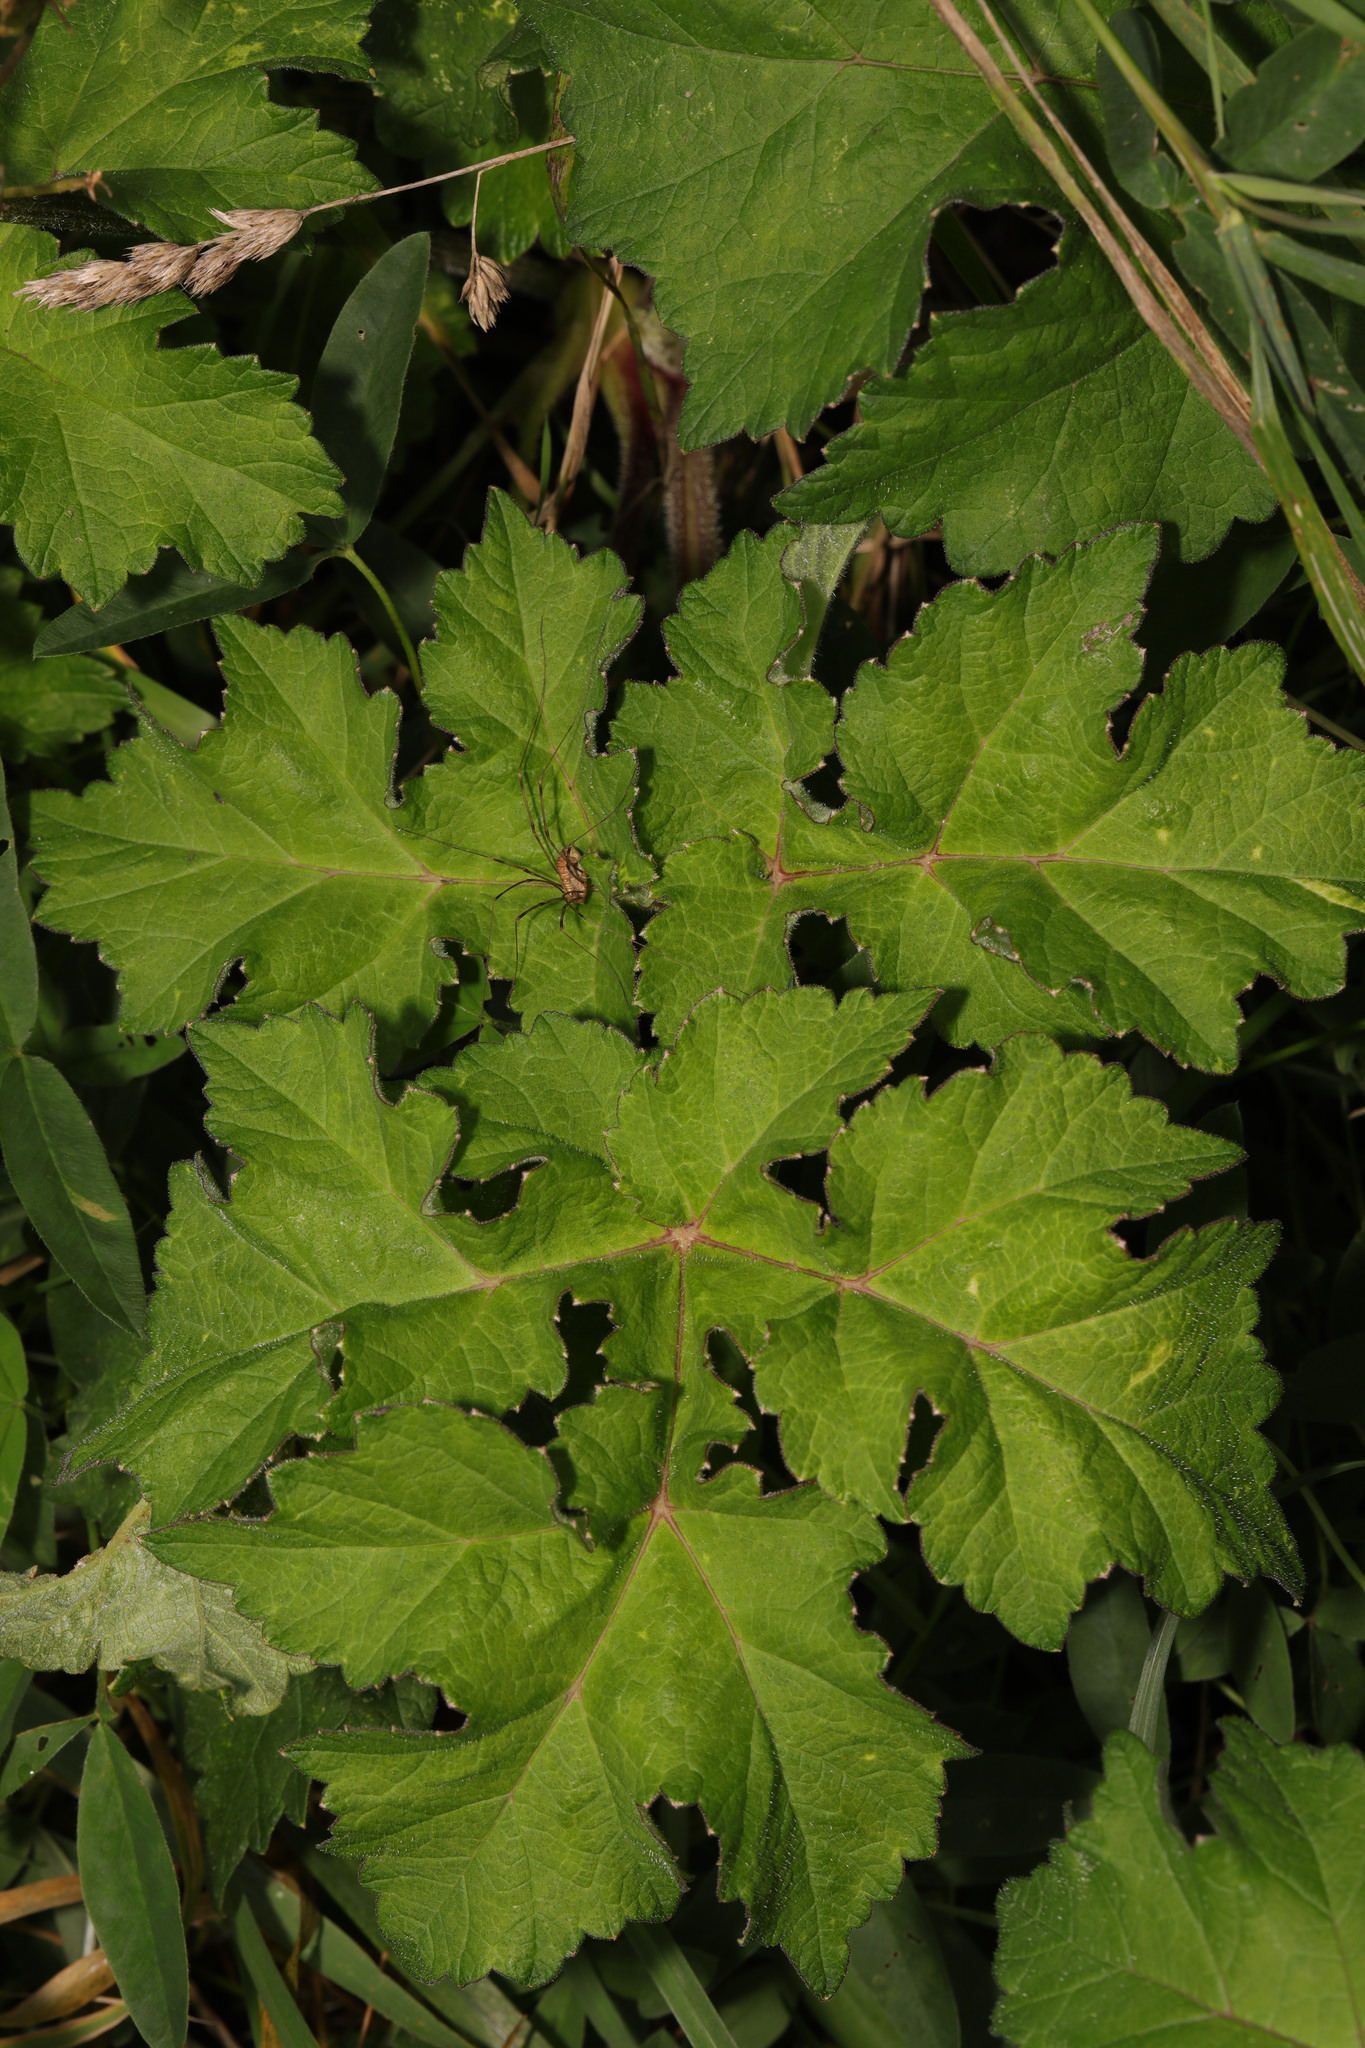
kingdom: Plantae
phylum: Tracheophyta
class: Magnoliopsida
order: Apiales
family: Apiaceae
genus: Heracleum
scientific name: Heracleum sphondylium
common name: Hogweed
